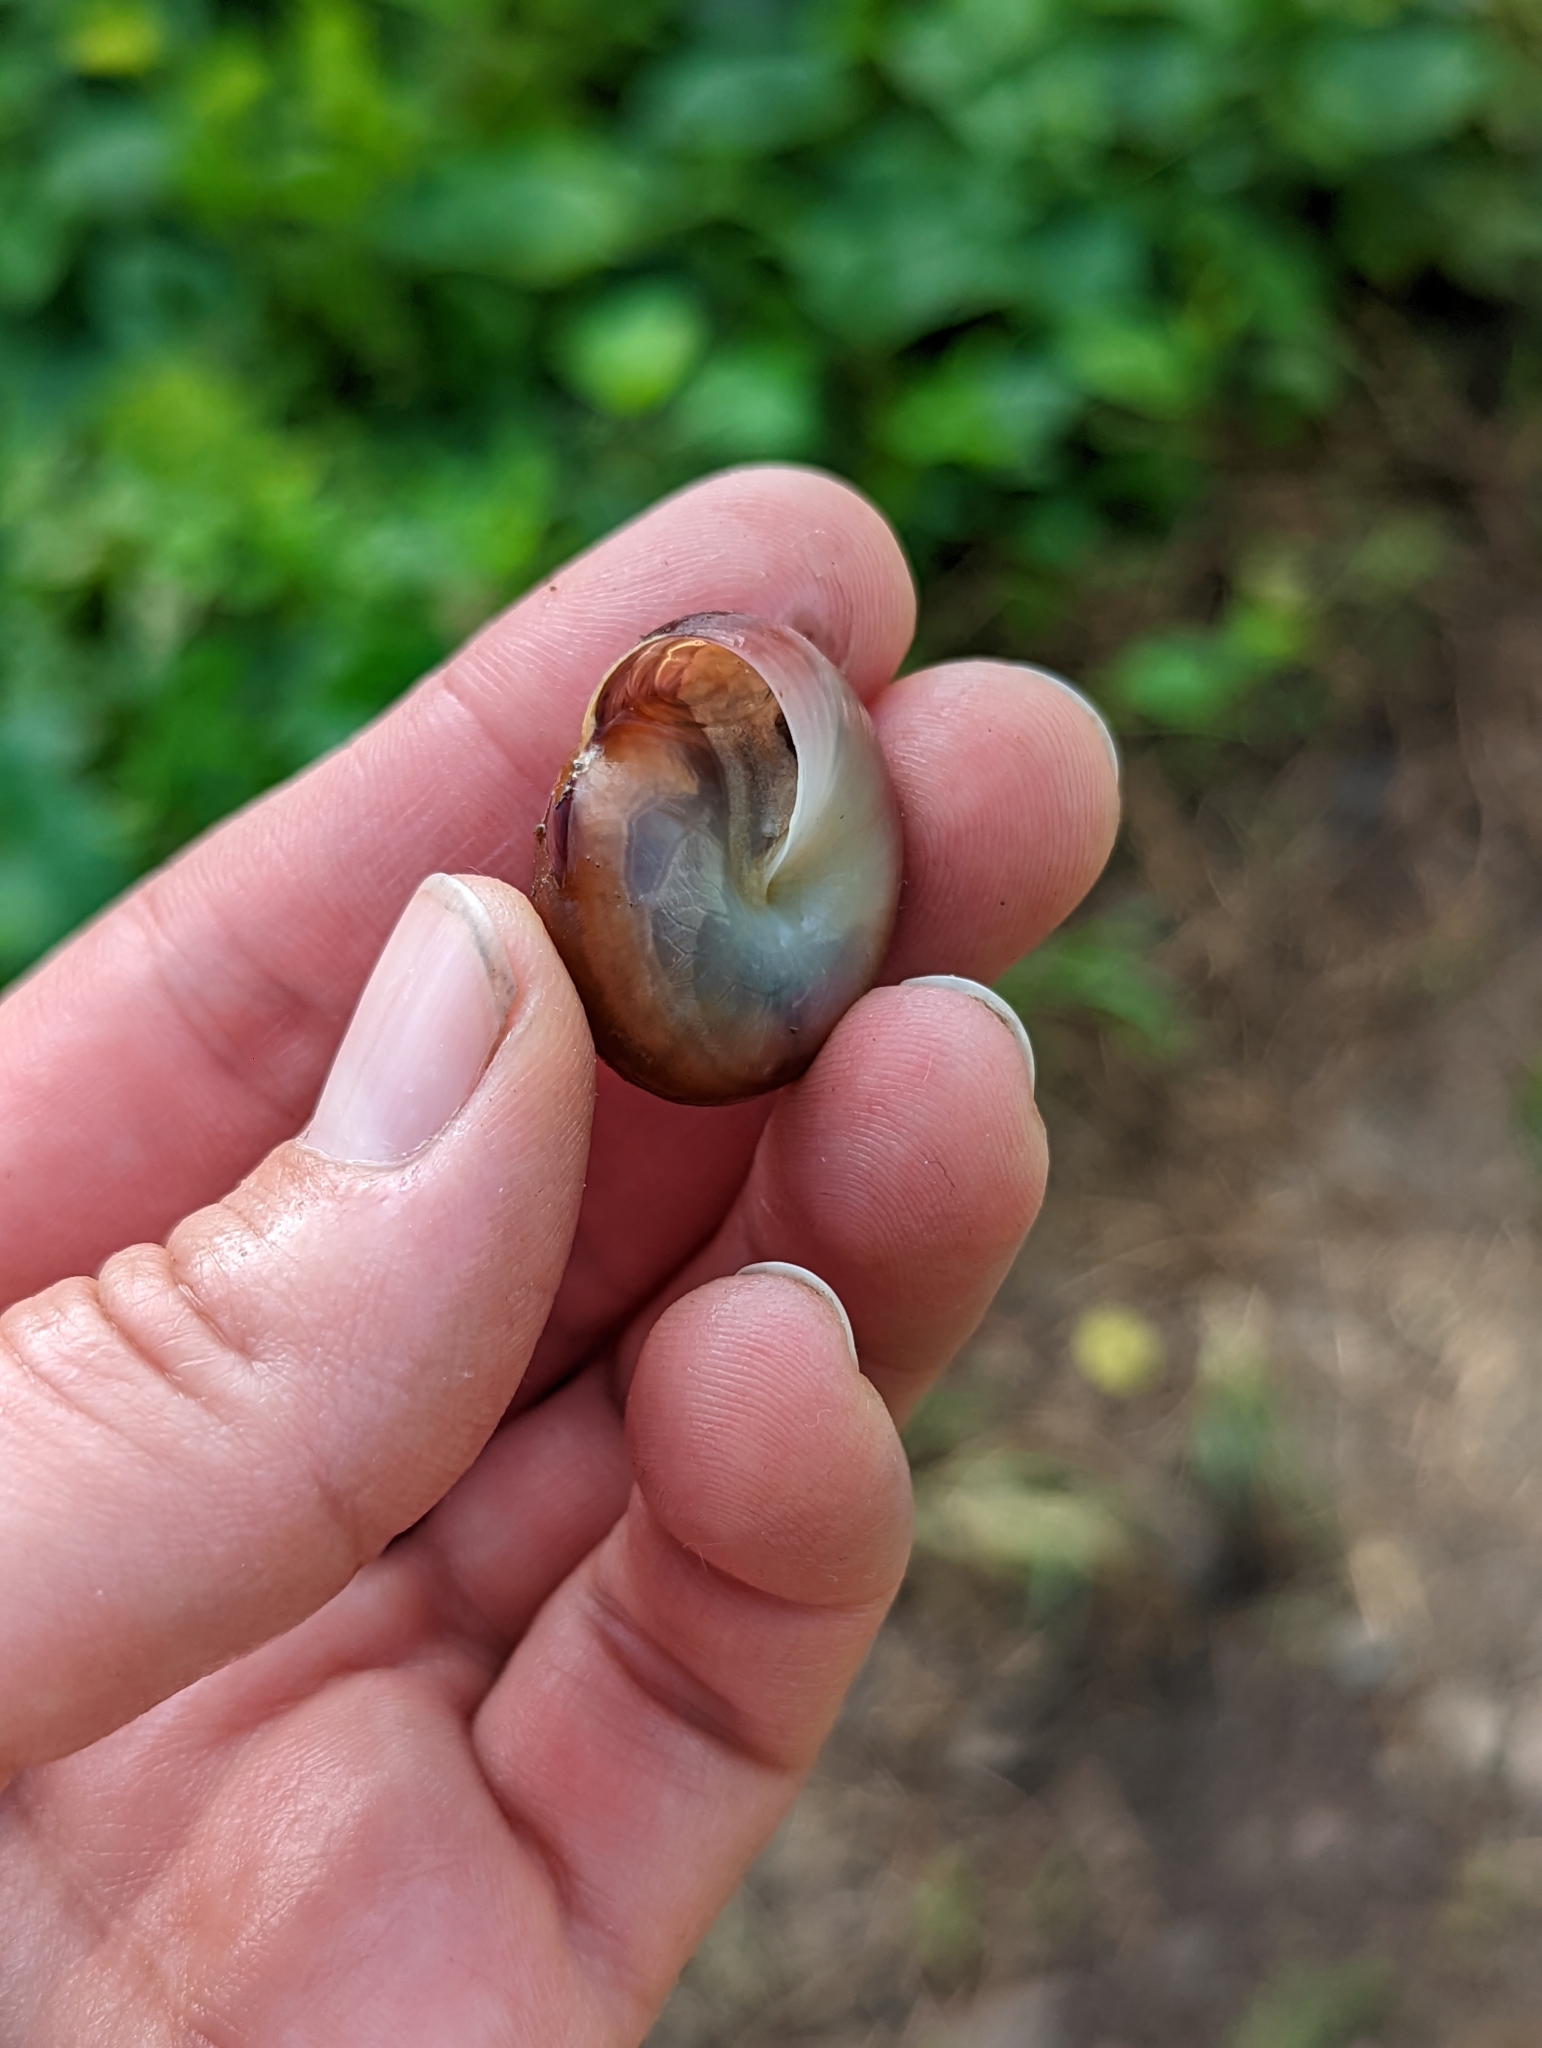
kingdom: Animalia
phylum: Mollusca
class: Gastropoda
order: Stylommatophora
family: Dyakiidae
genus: Quantula
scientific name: Quantula striata
